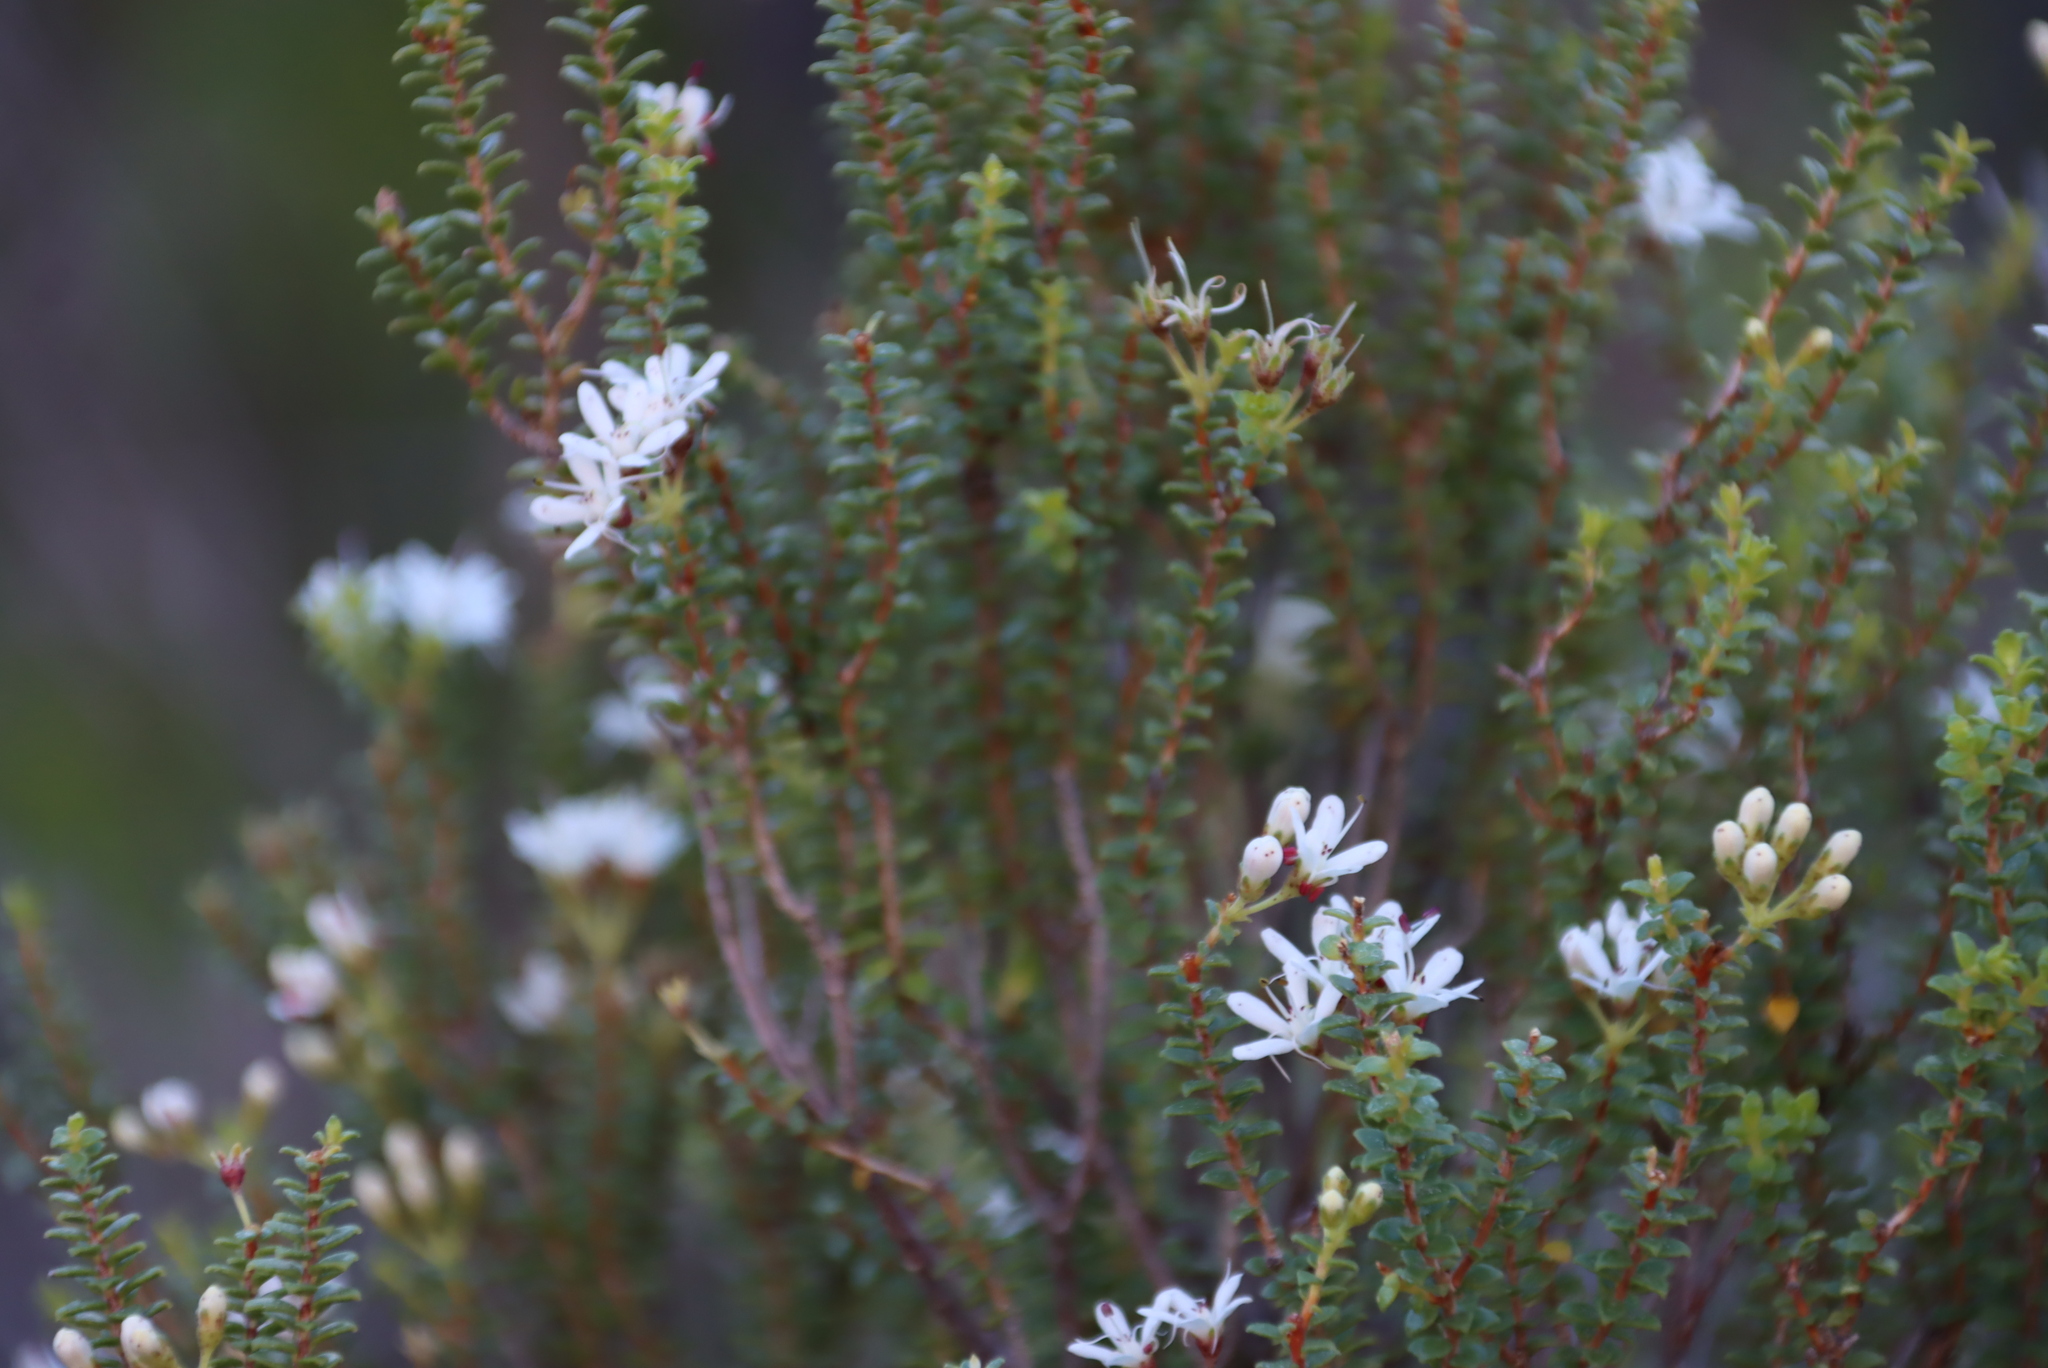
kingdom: Plantae
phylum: Tracheophyta
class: Magnoliopsida
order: Sapindales
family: Rutaceae
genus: Agathosma
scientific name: Agathosma recurvifolia
